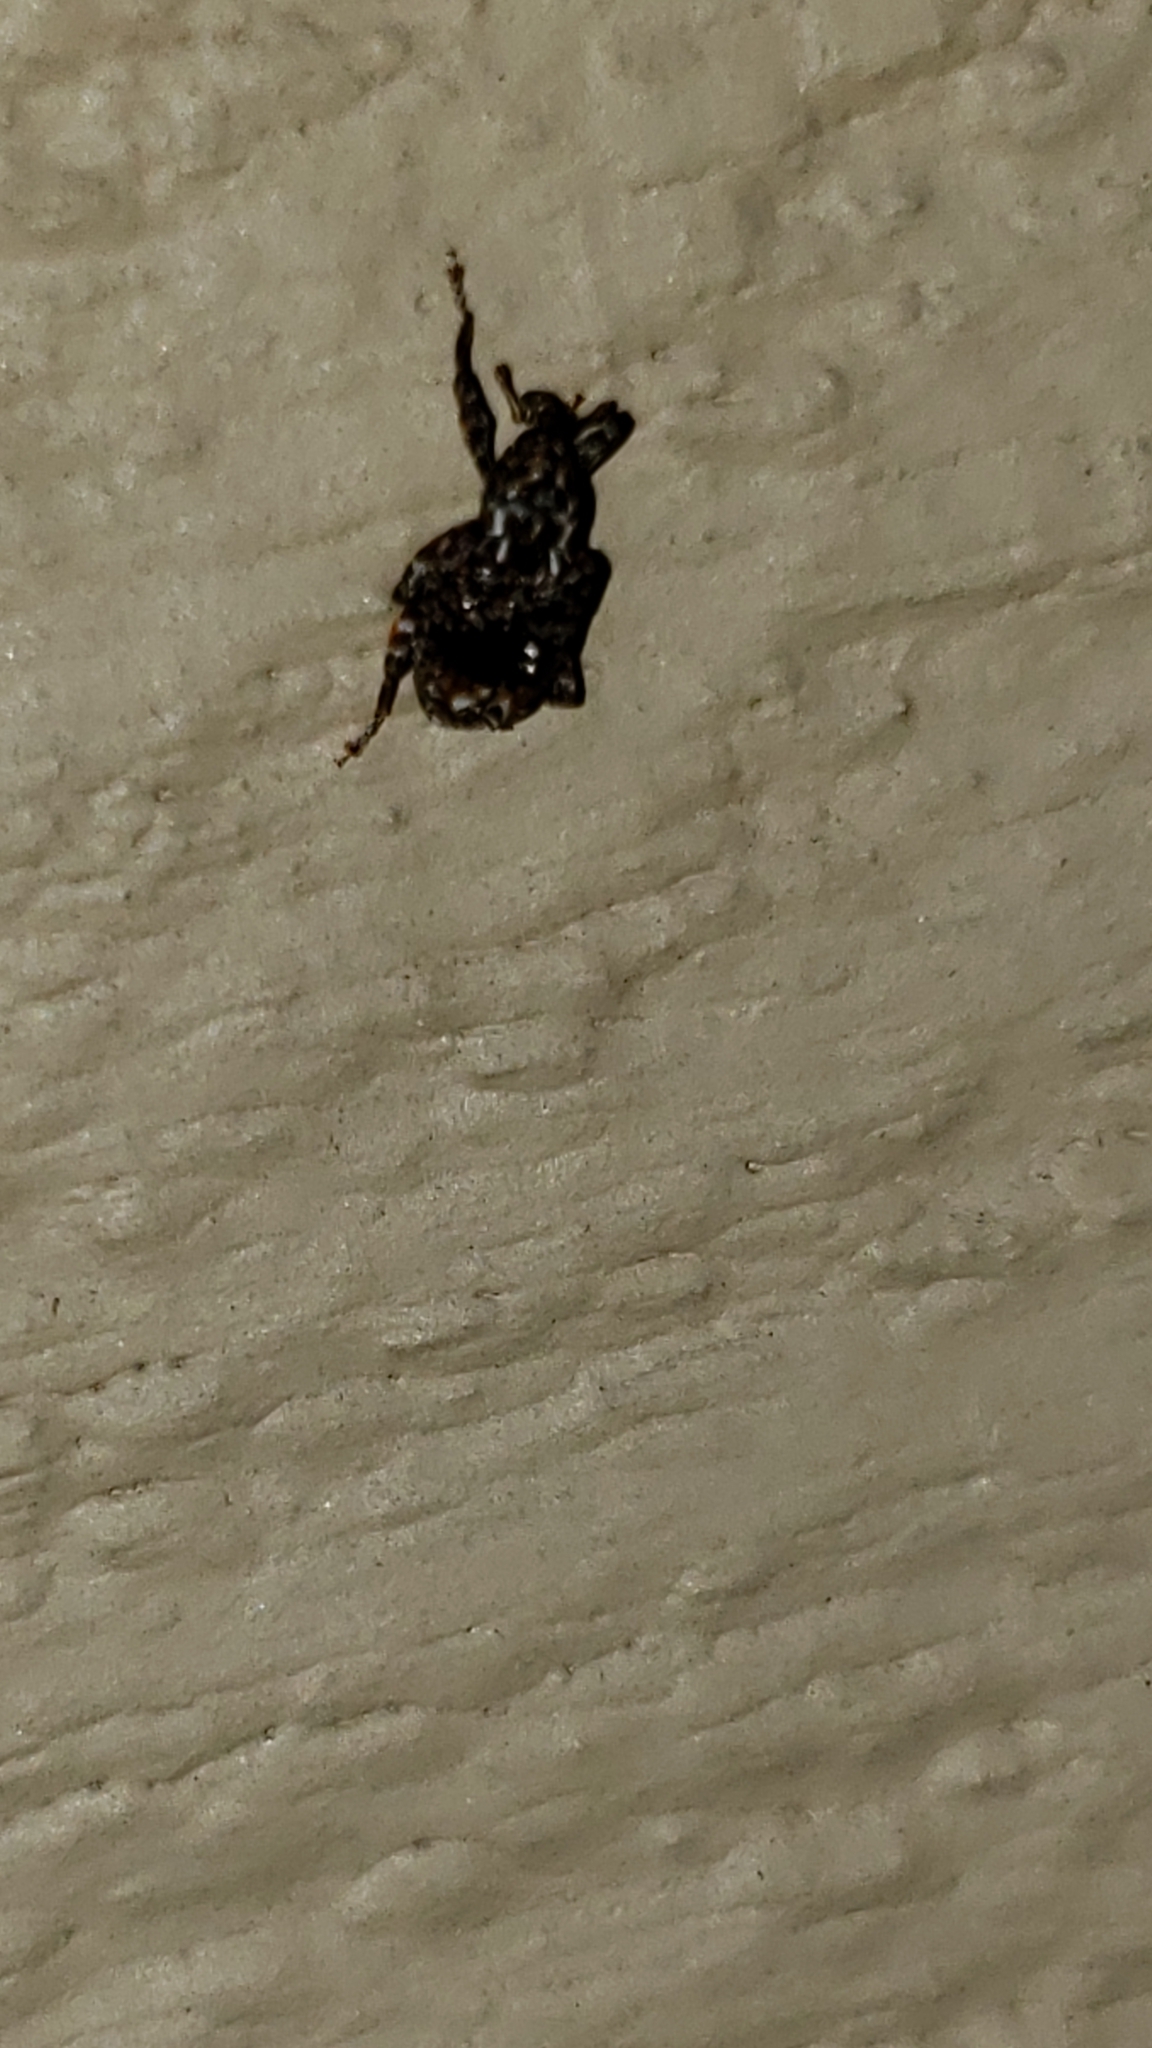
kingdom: Animalia
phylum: Arthropoda
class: Insecta
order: Coleoptera
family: Curculionidae
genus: Conotrachelus
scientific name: Conotrachelus nenuphar
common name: Plum curculio
